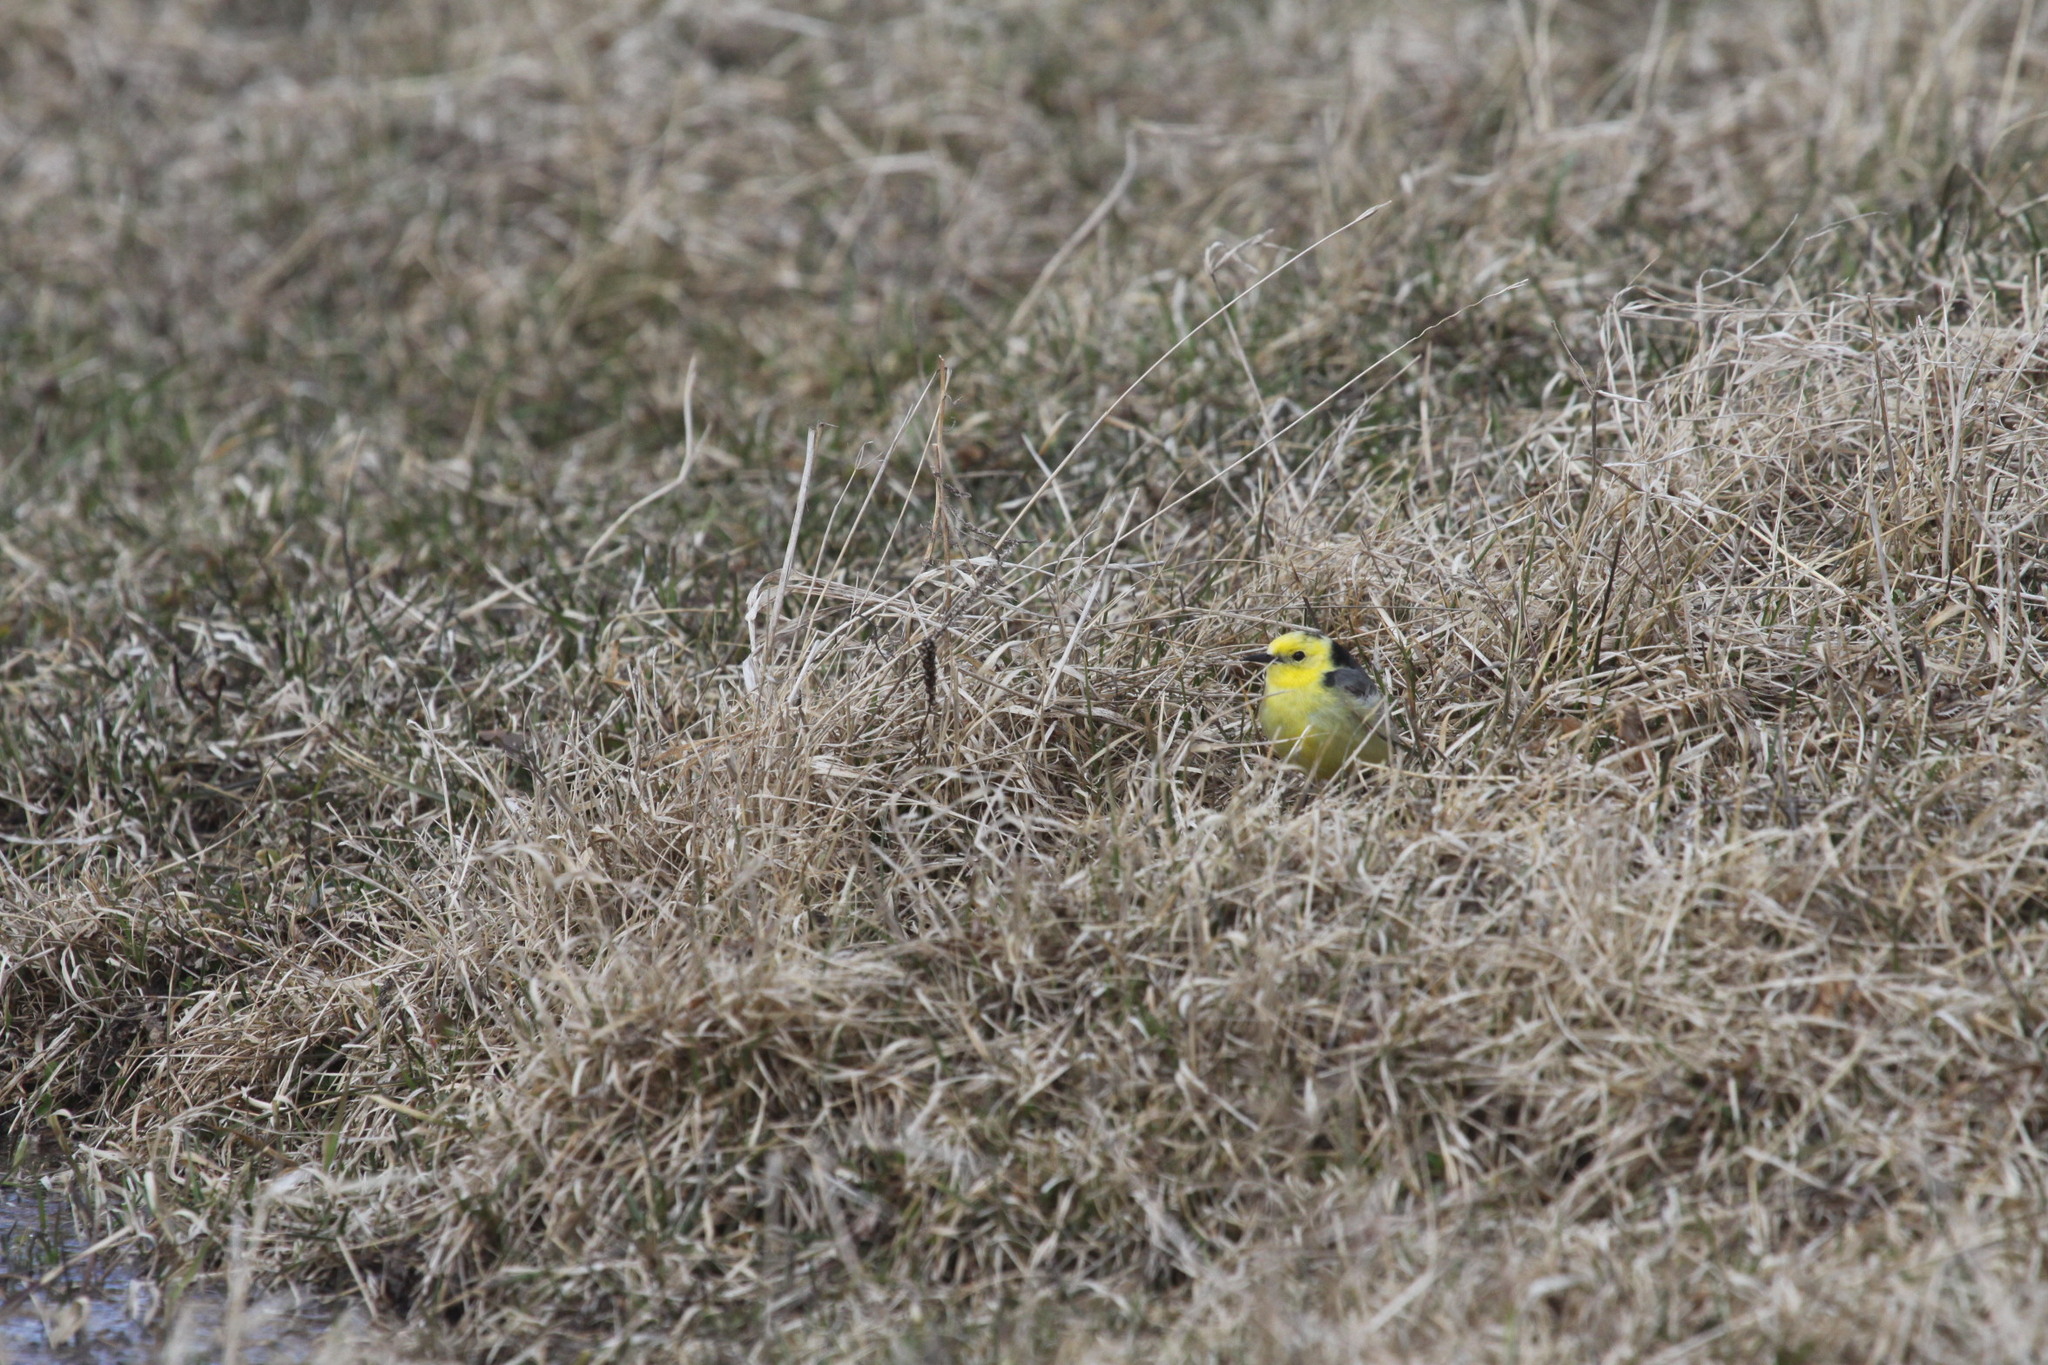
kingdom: Animalia
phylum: Chordata
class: Aves
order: Passeriformes
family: Motacillidae
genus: Motacilla
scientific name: Motacilla citreola
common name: Citrine wagtail
